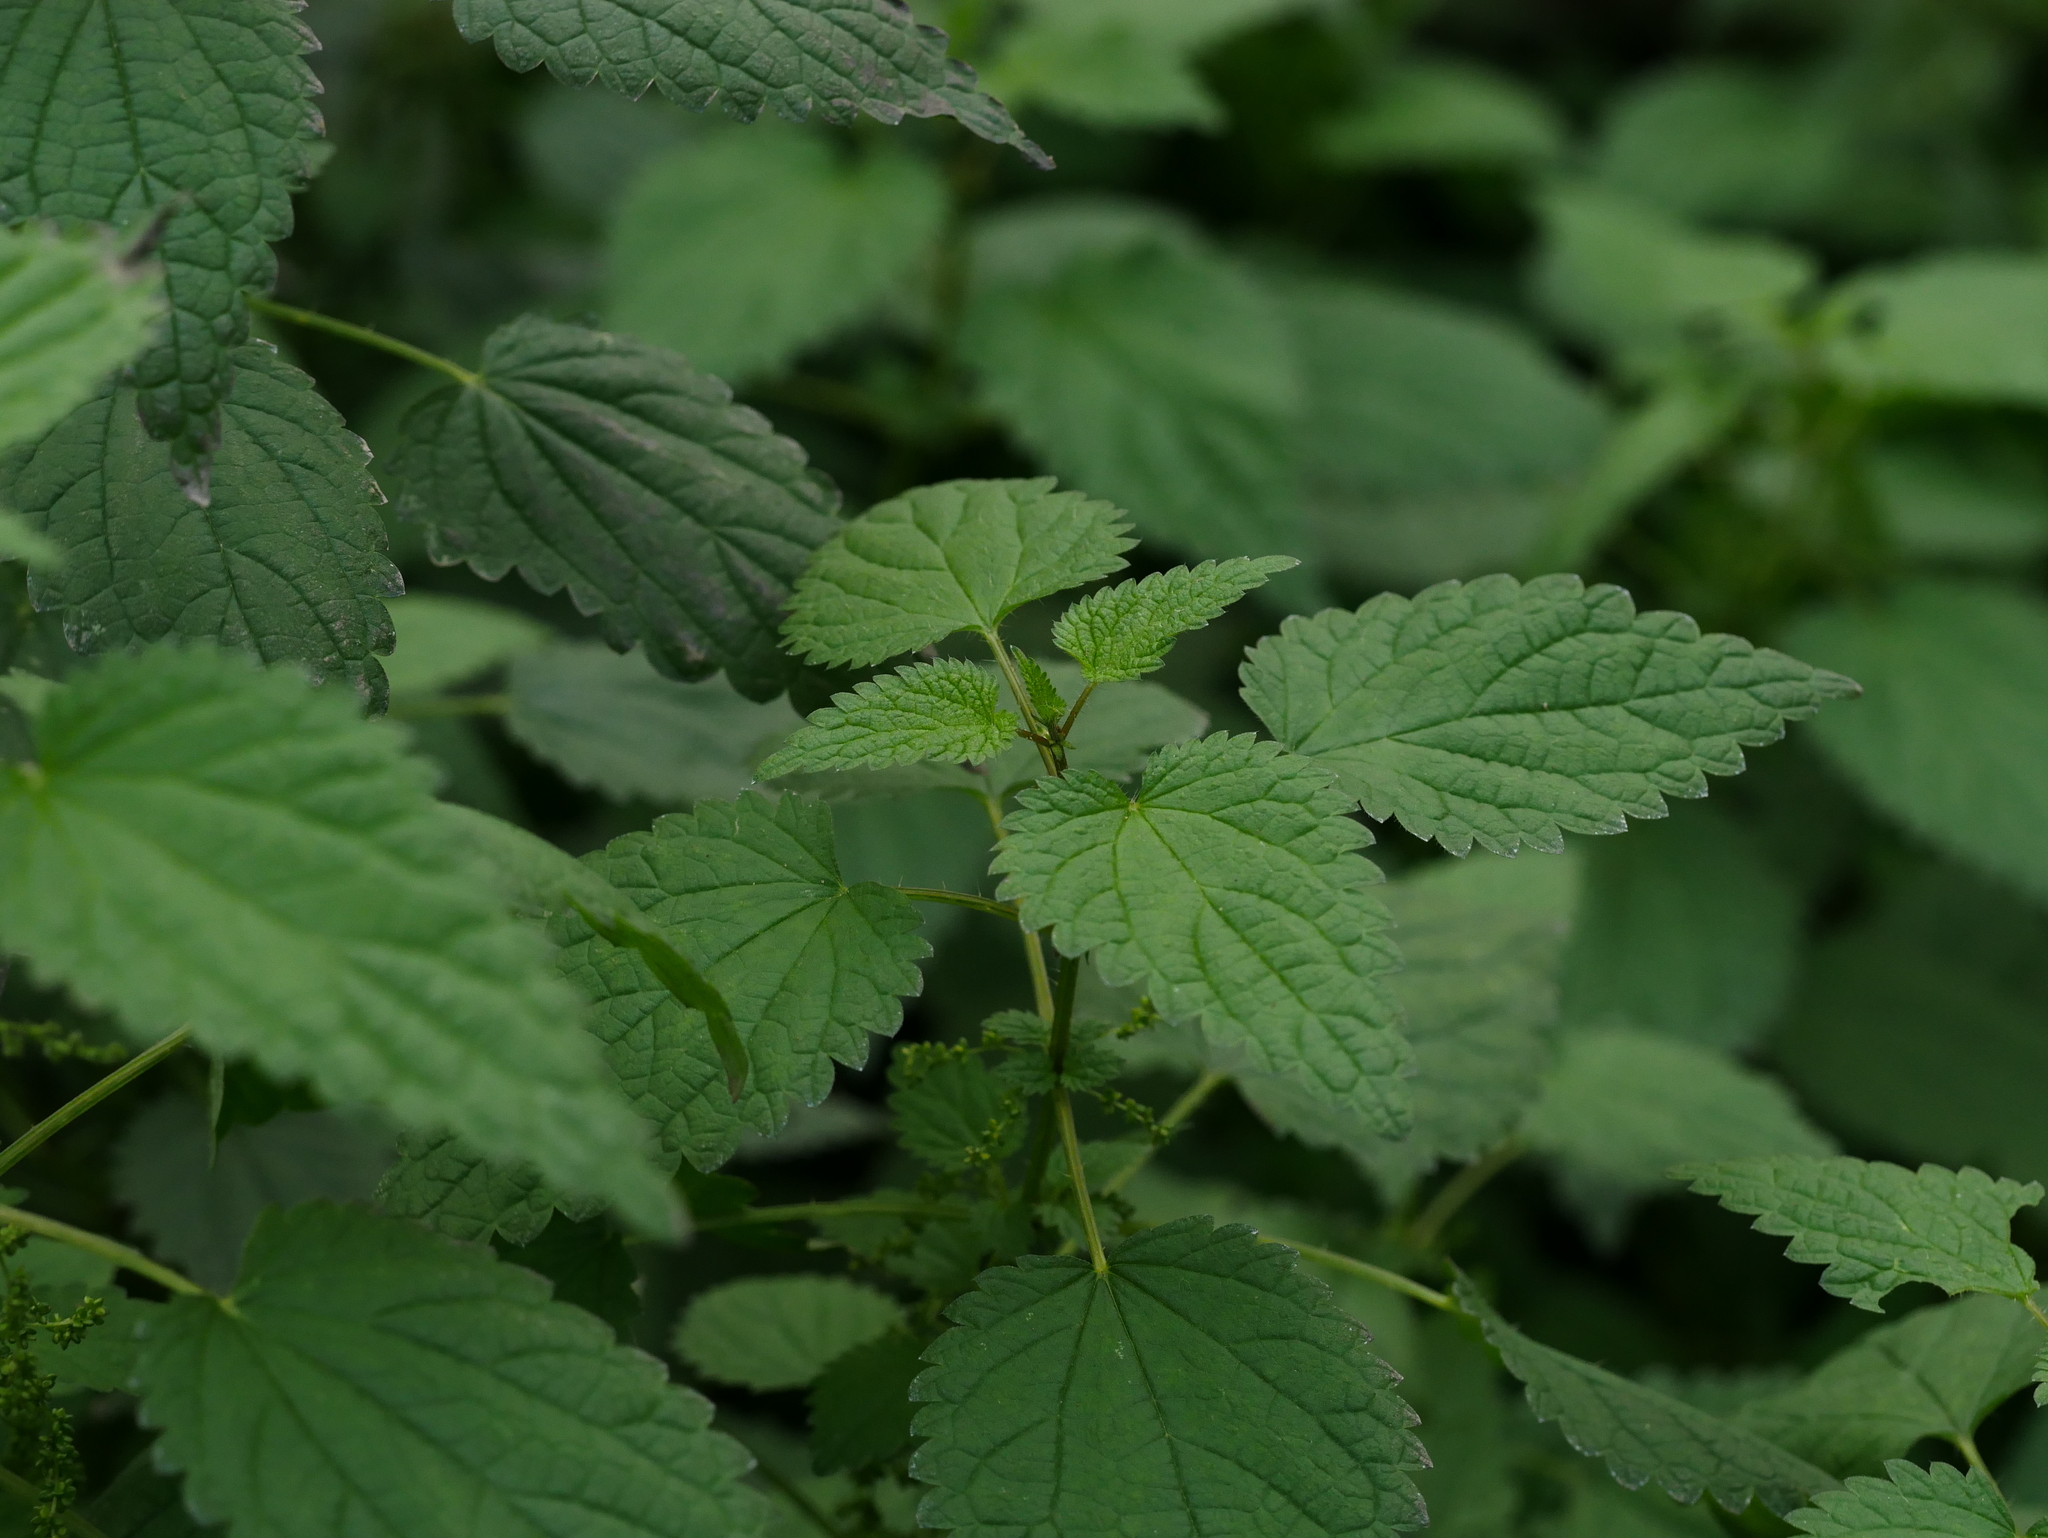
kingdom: Plantae
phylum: Tracheophyta
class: Magnoliopsida
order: Rosales
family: Urticaceae
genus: Urtica
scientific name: Urtica dioica
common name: Common nettle
